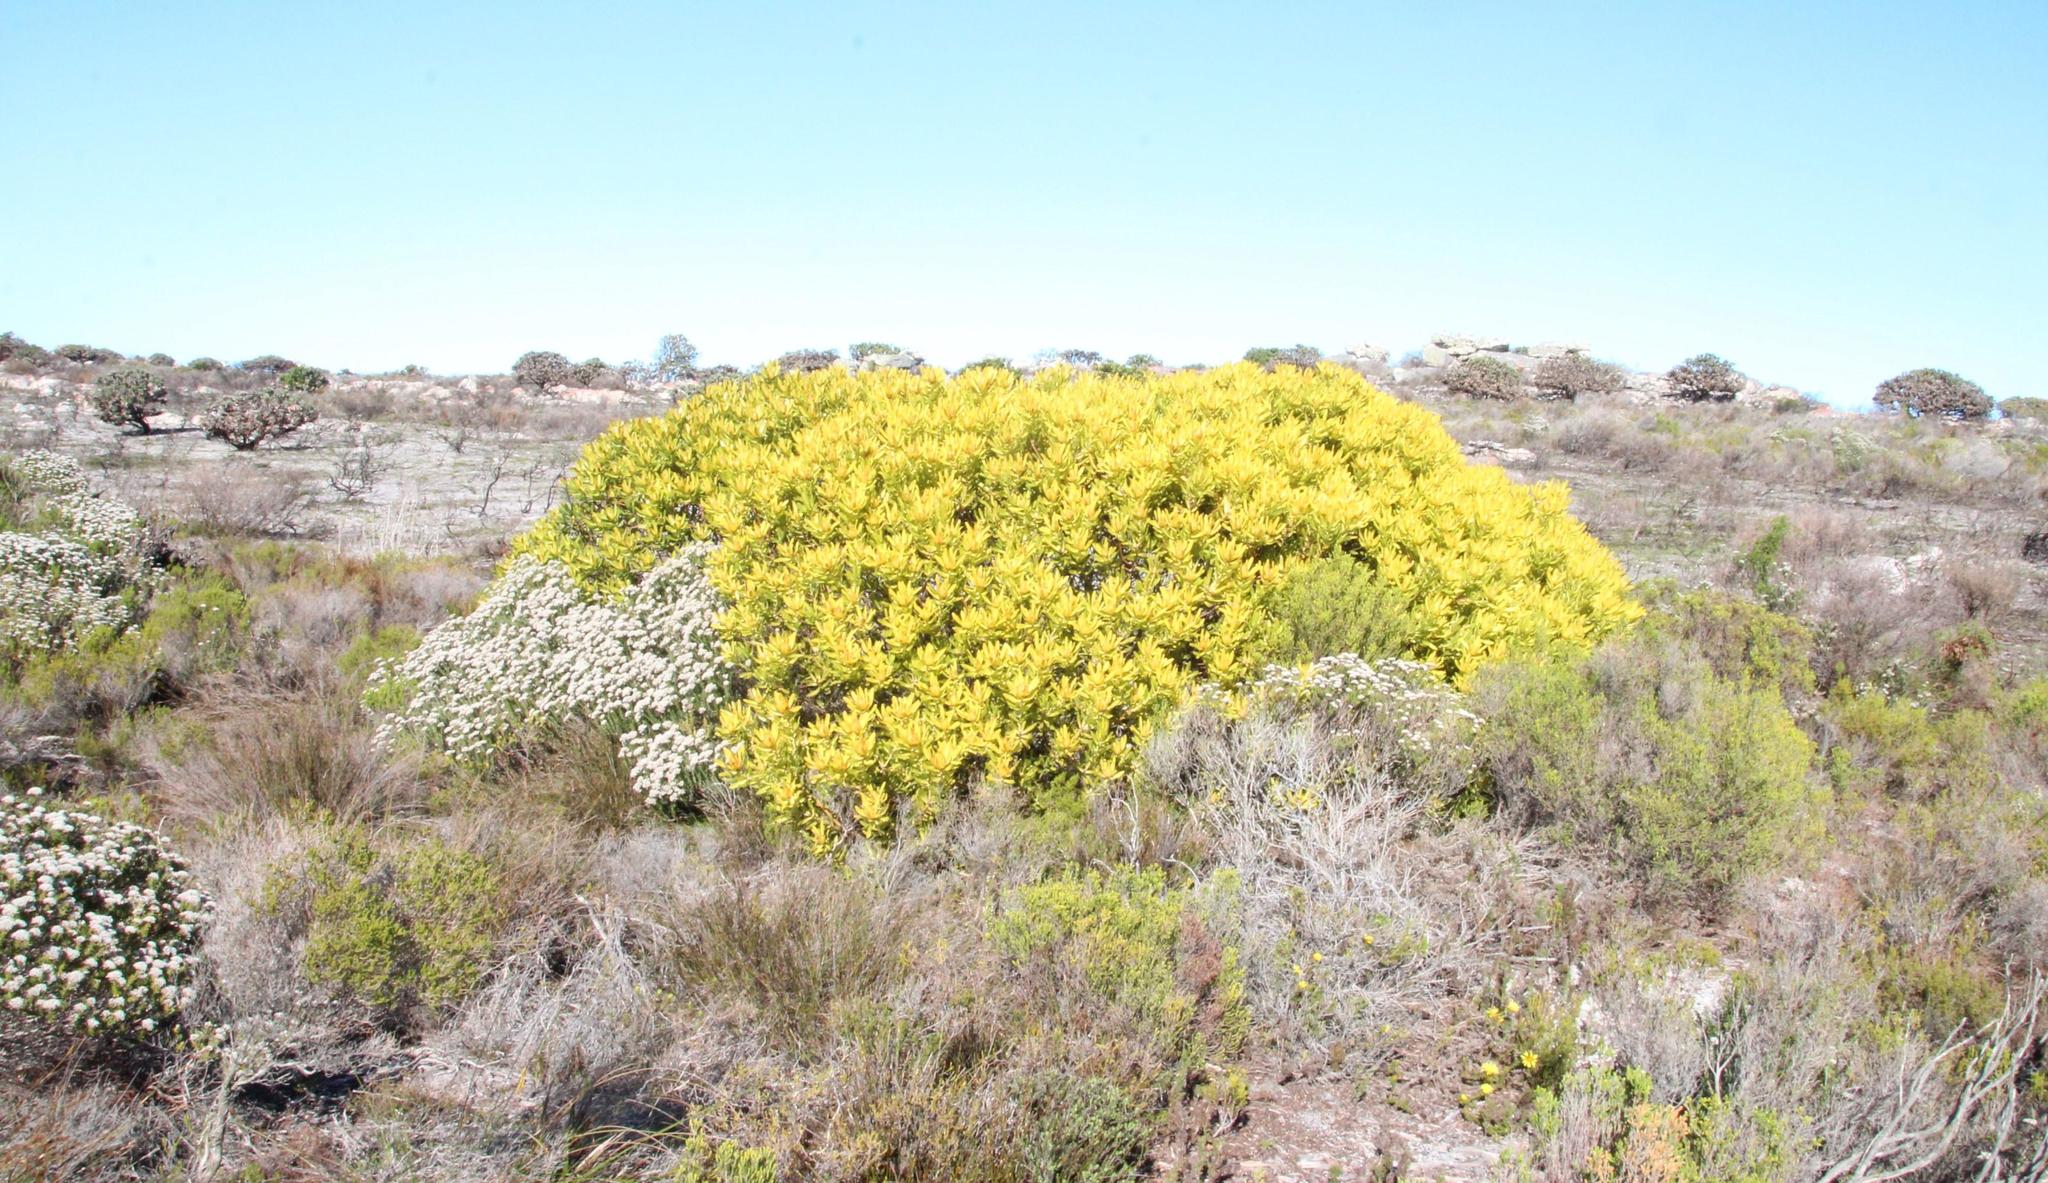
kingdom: Plantae
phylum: Tracheophyta
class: Magnoliopsida
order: Proteales
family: Proteaceae
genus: Leucadendron
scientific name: Leucadendron laureolum
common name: Golden sunshinebush
